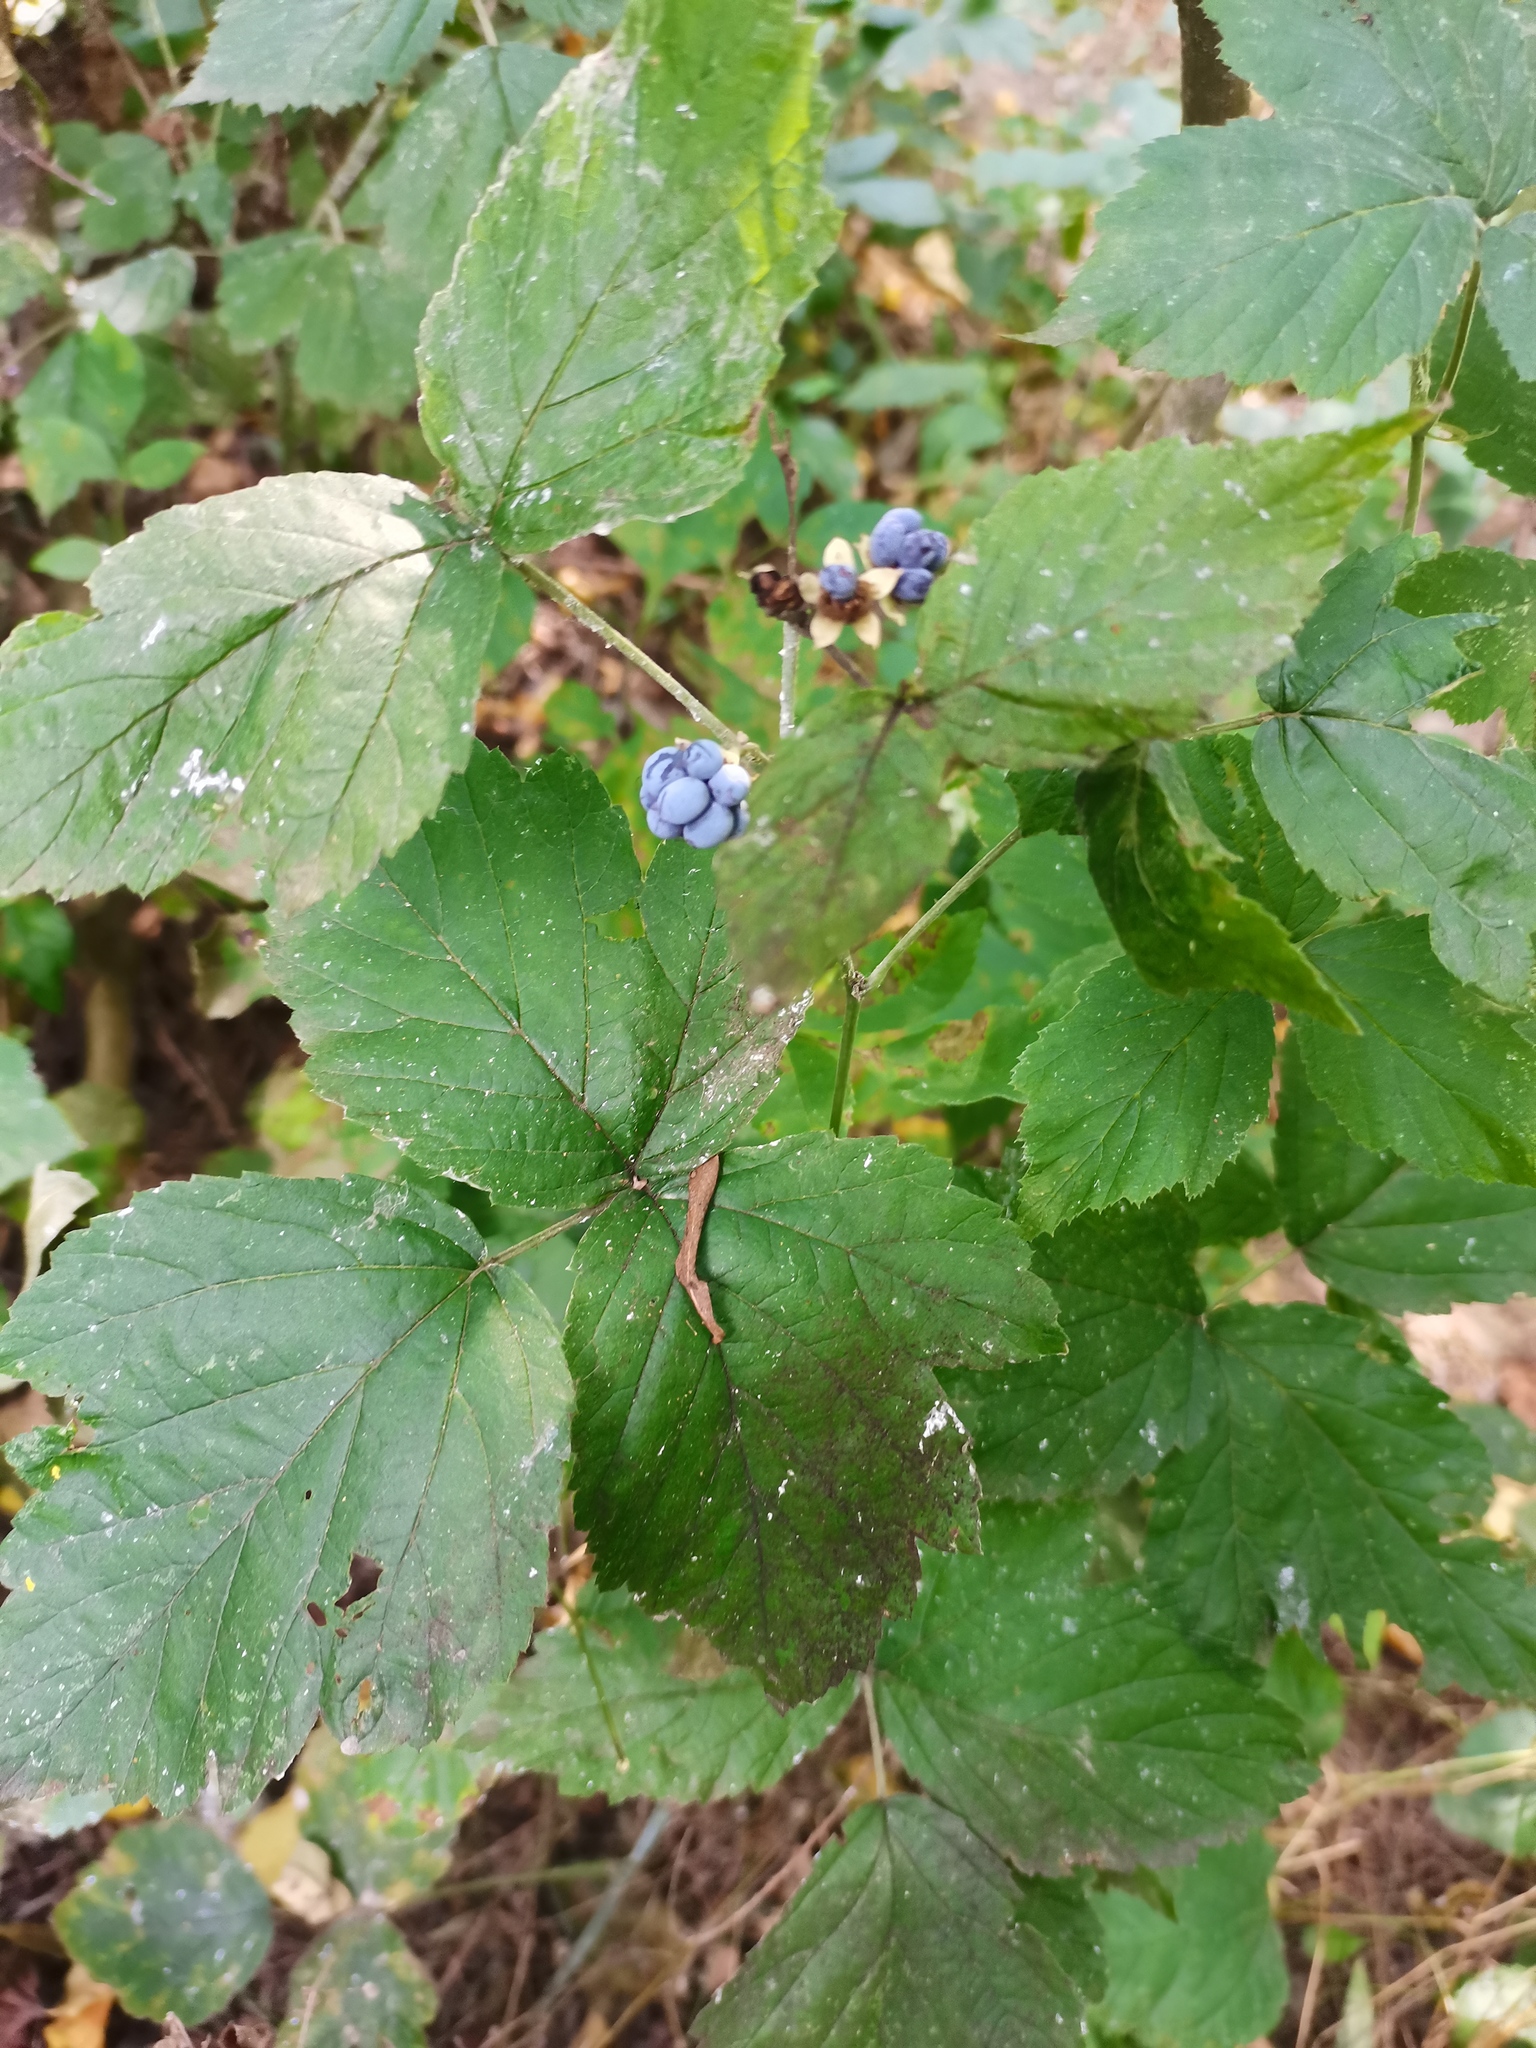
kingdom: Plantae
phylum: Tracheophyta
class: Magnoliopsida
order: Rosales
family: Rosaceae
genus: Rubus
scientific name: Rubus caesius
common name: Dewberry
